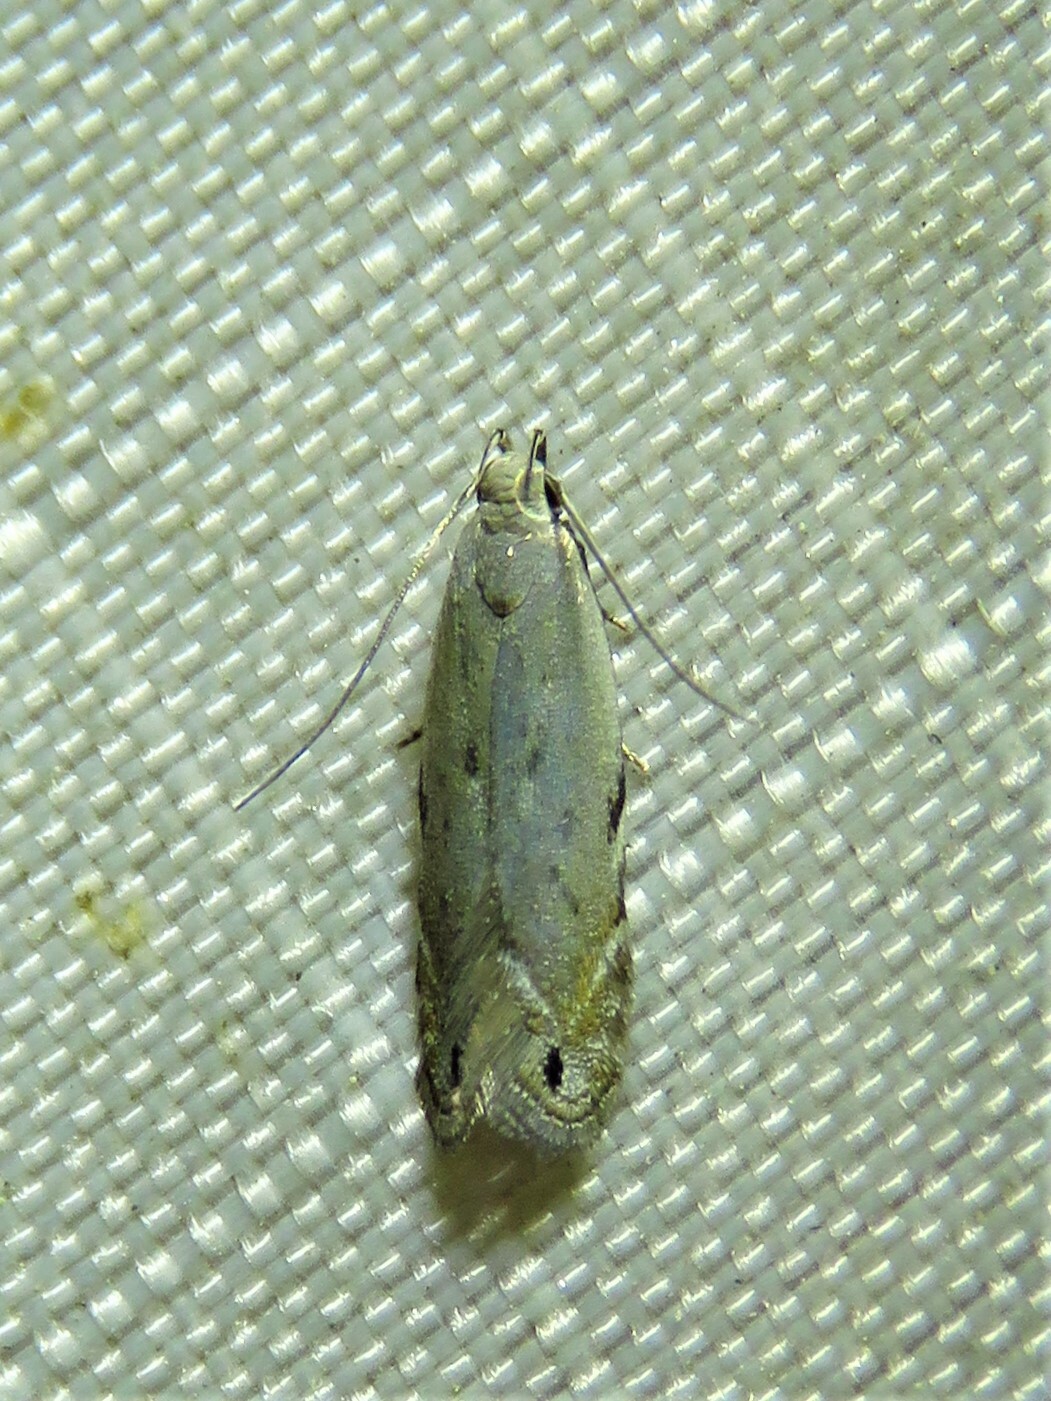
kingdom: Animalia
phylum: Arthropoda
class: Insecta
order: Lepidoptera
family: Gelechiidae
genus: Battaristis
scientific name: Battaristis concinnusella
